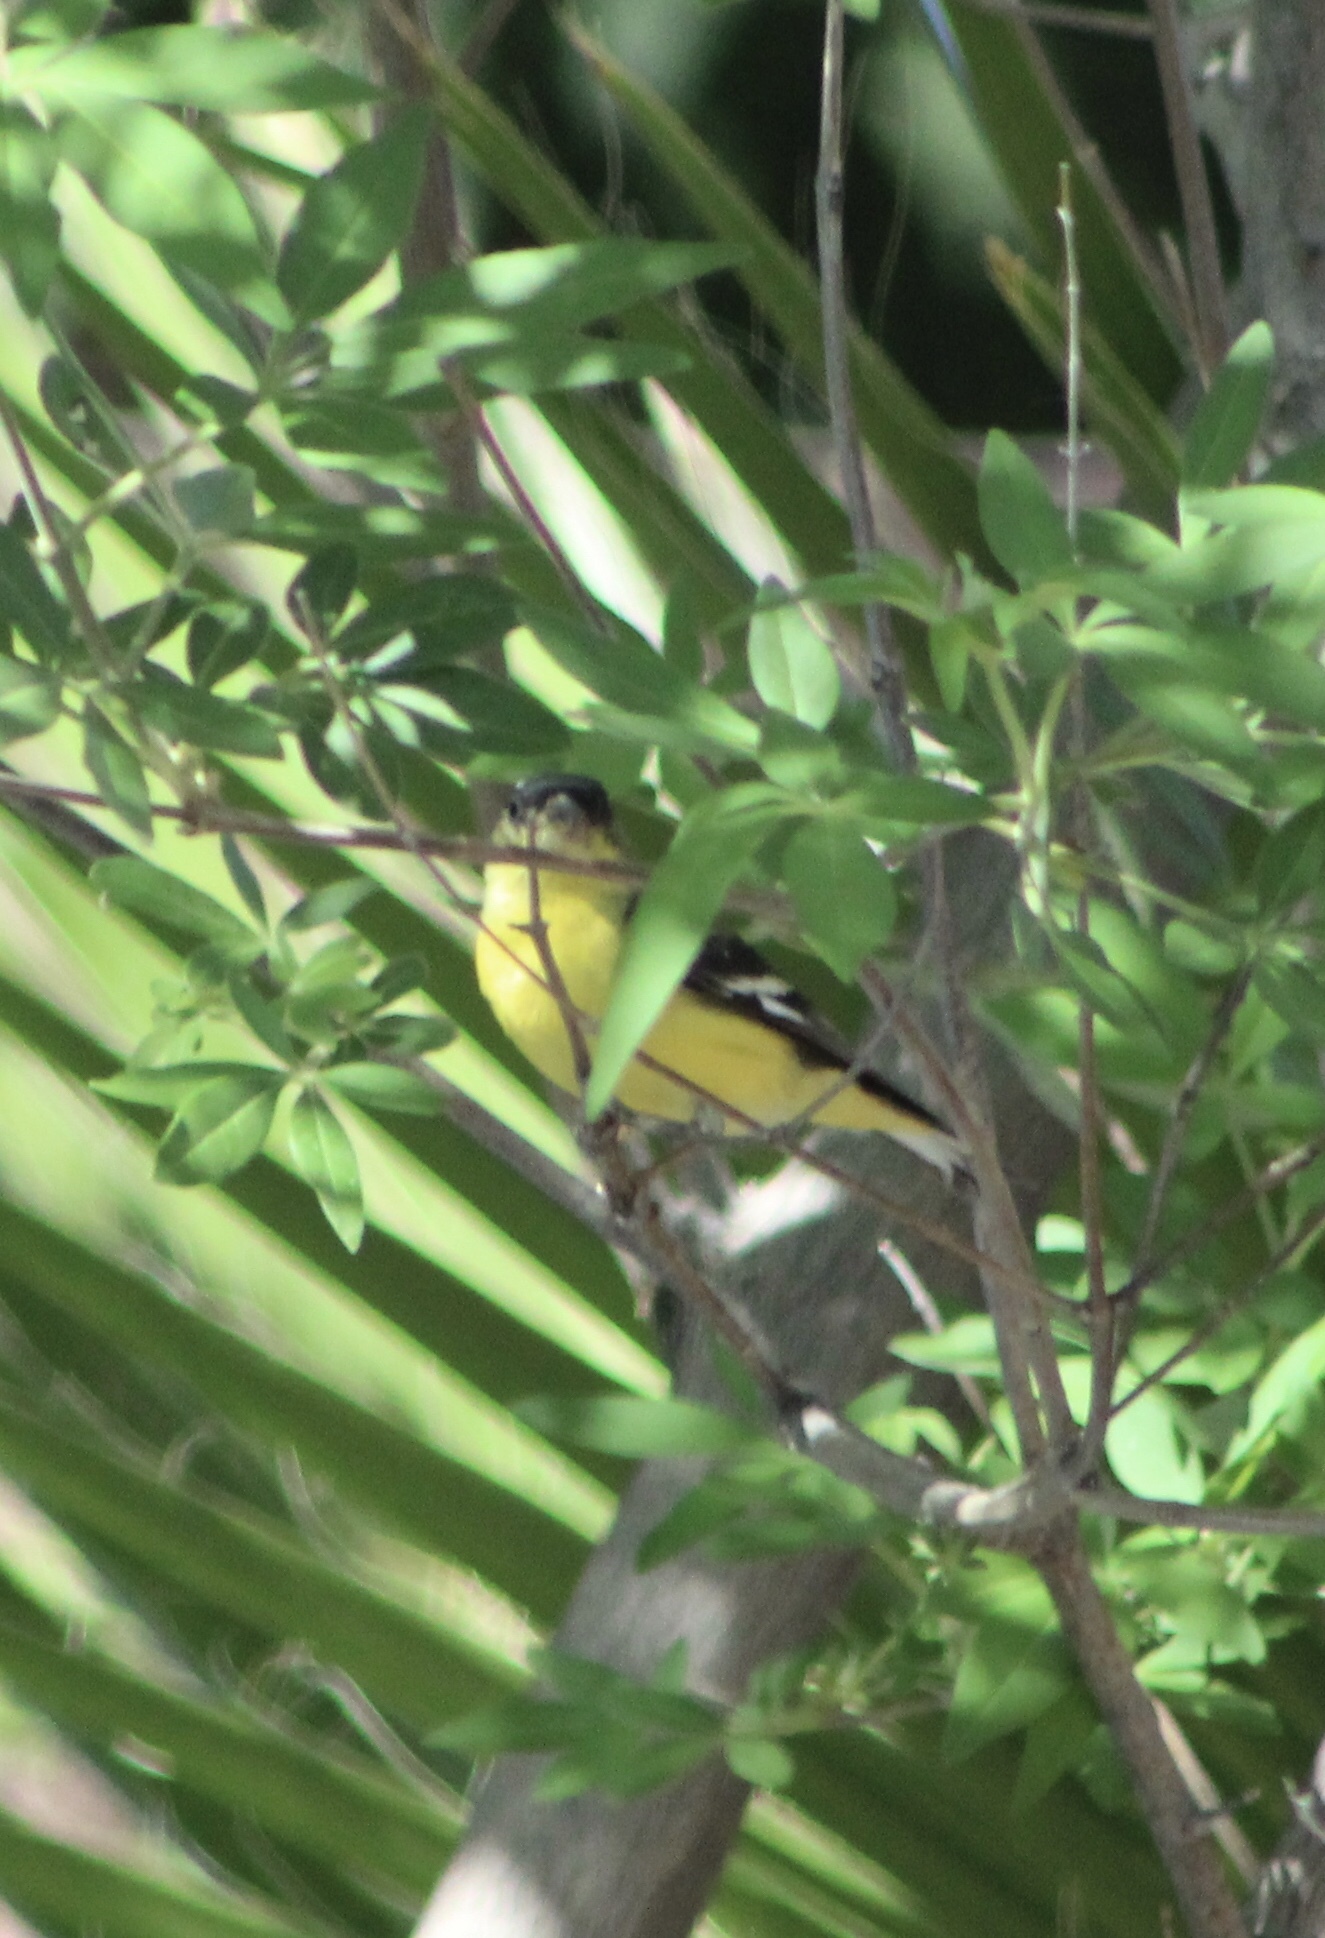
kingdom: Animalia
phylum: Chordata
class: Aves
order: Passeriformes
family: Fringillidae
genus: Spinus
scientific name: Spinus psaltria
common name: Lesser goldfinch
